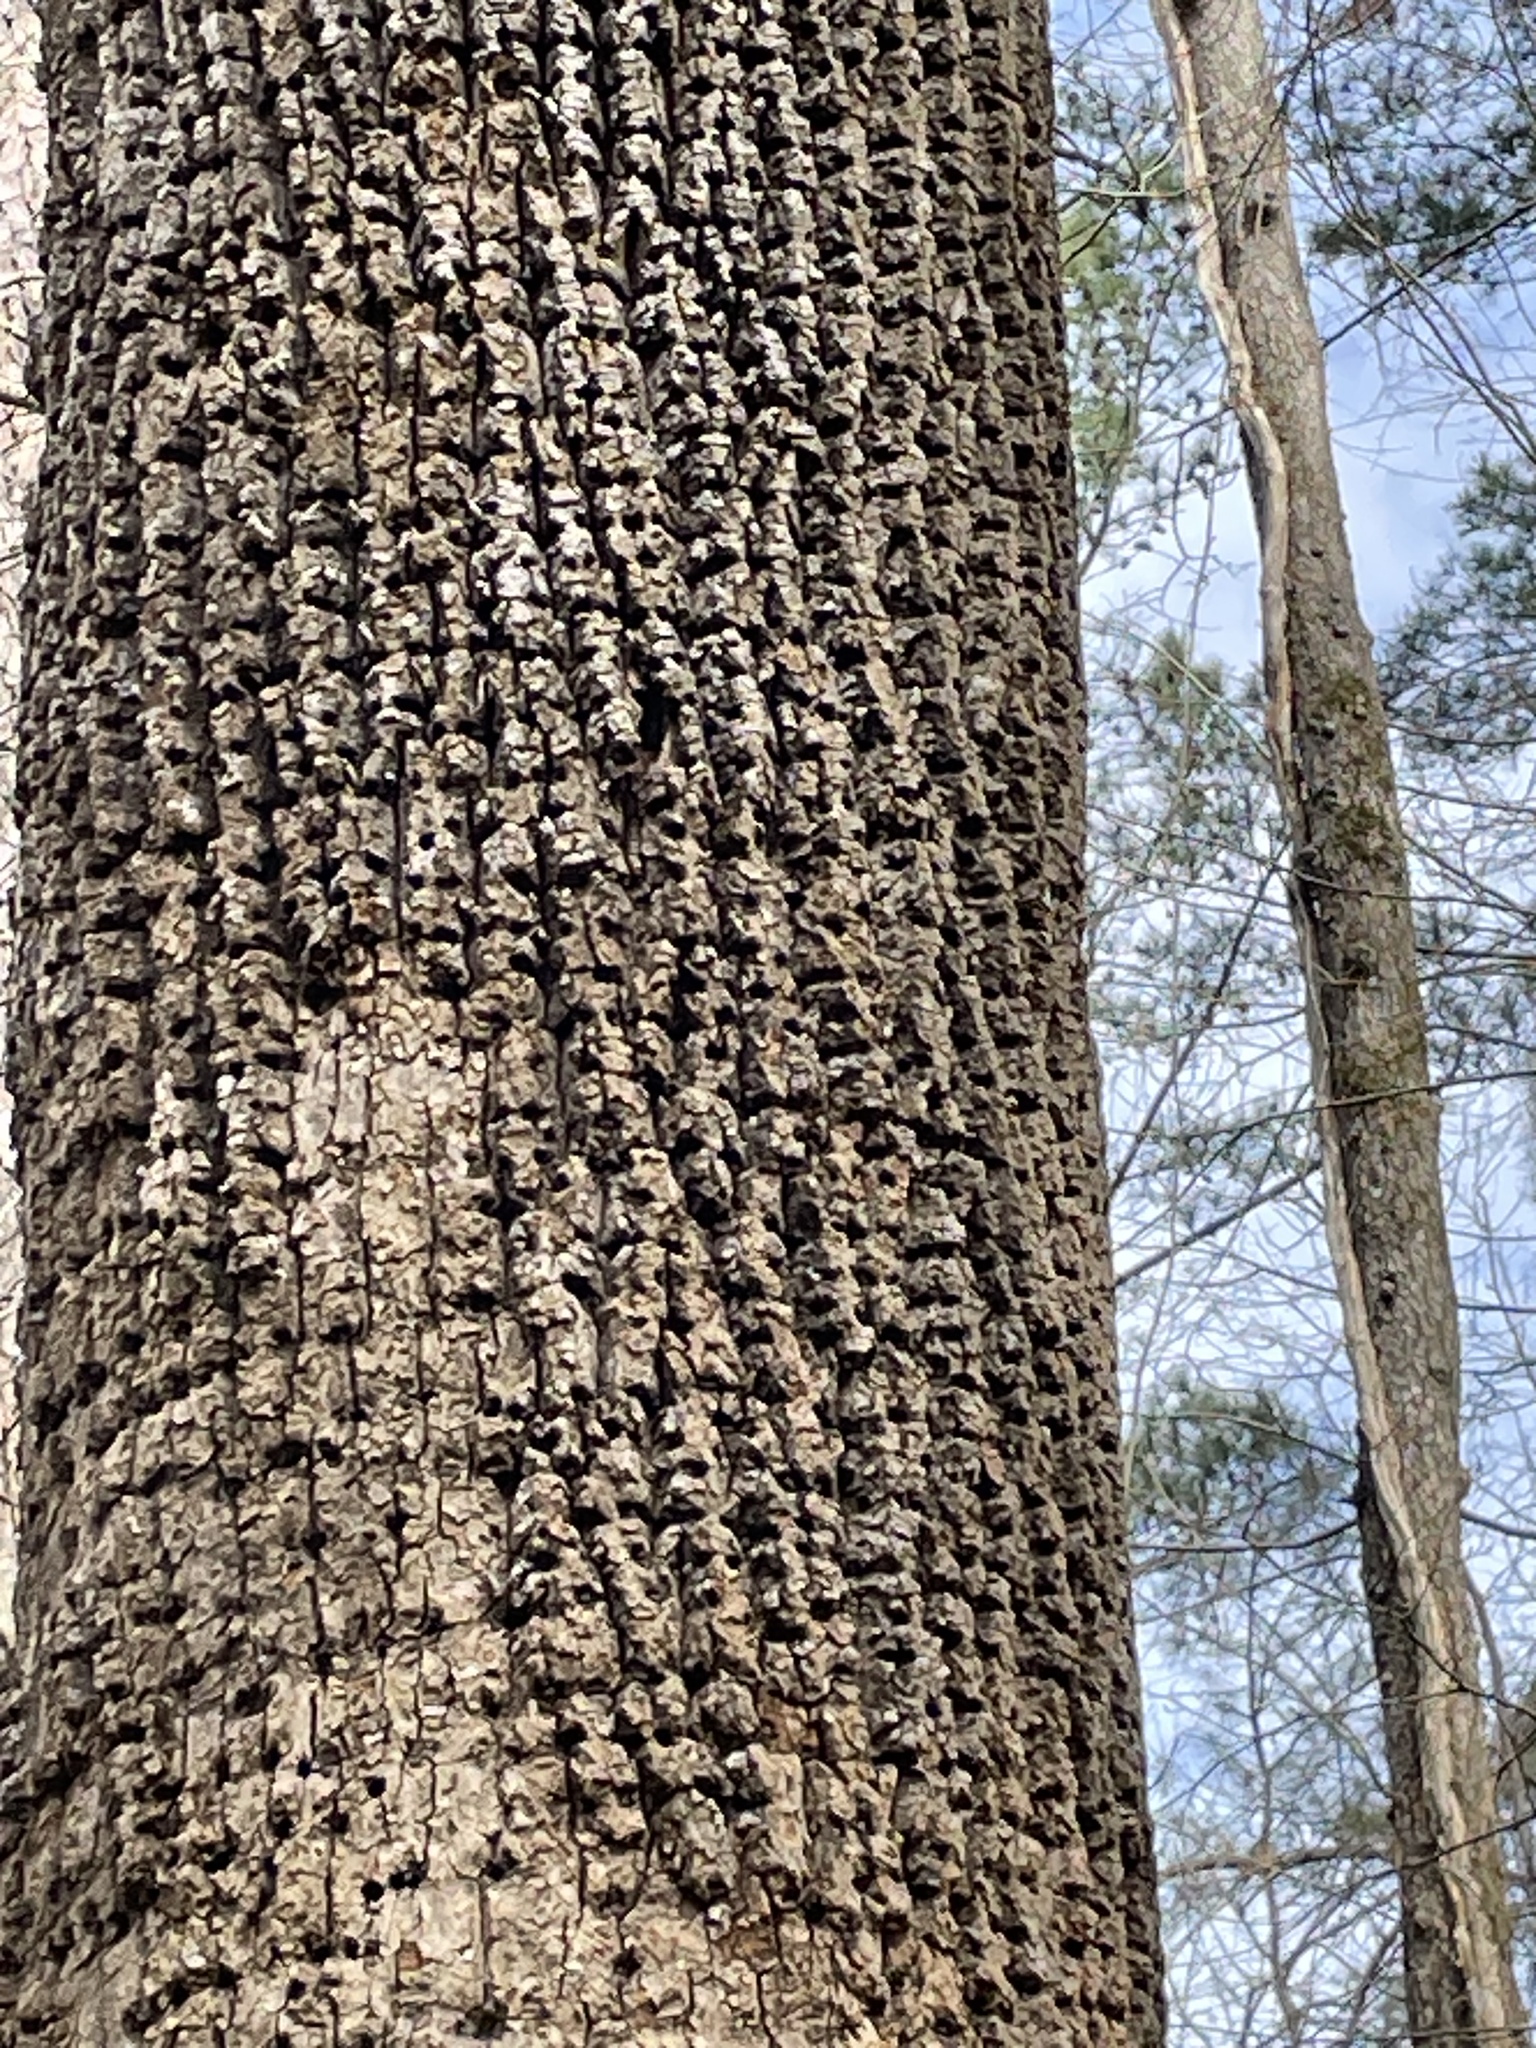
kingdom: Animalia
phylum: Chordata
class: Aves
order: Piciformes
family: Picidae
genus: Sphyrapicus
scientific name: Sphyrapicus varius
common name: Yellow-bellied sapsucker
